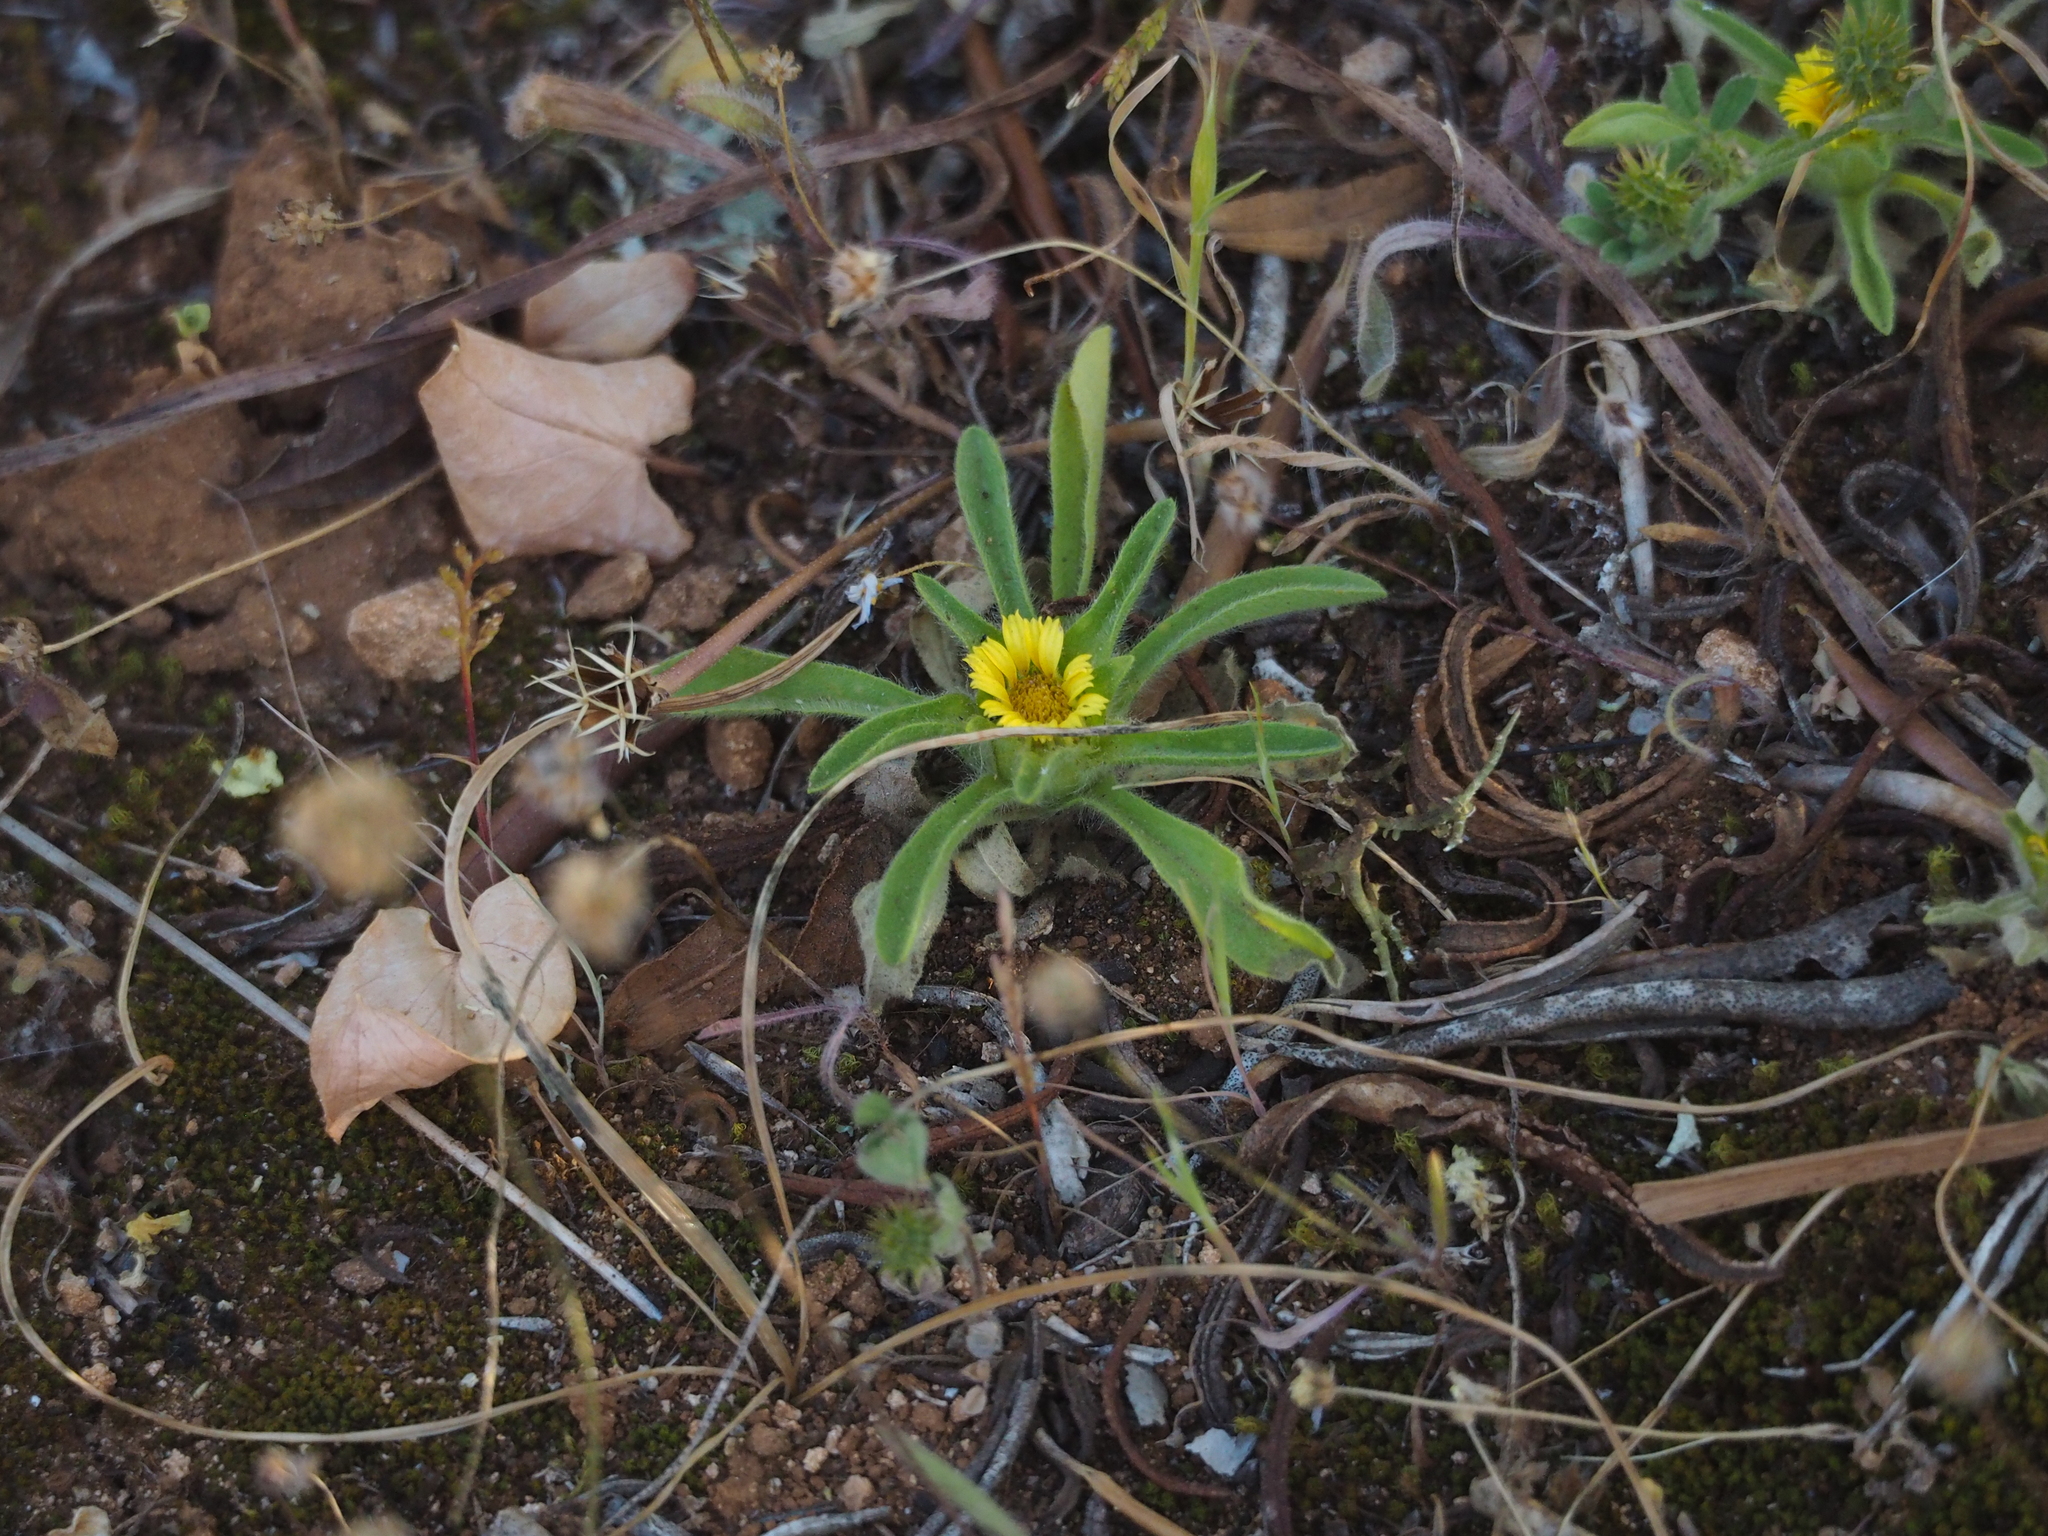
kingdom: Plantae
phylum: Tracheophyta
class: Magnoliopsida
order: Asterales
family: Asteraceae
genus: Asteriscus
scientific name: Asteriscus aquaticus
